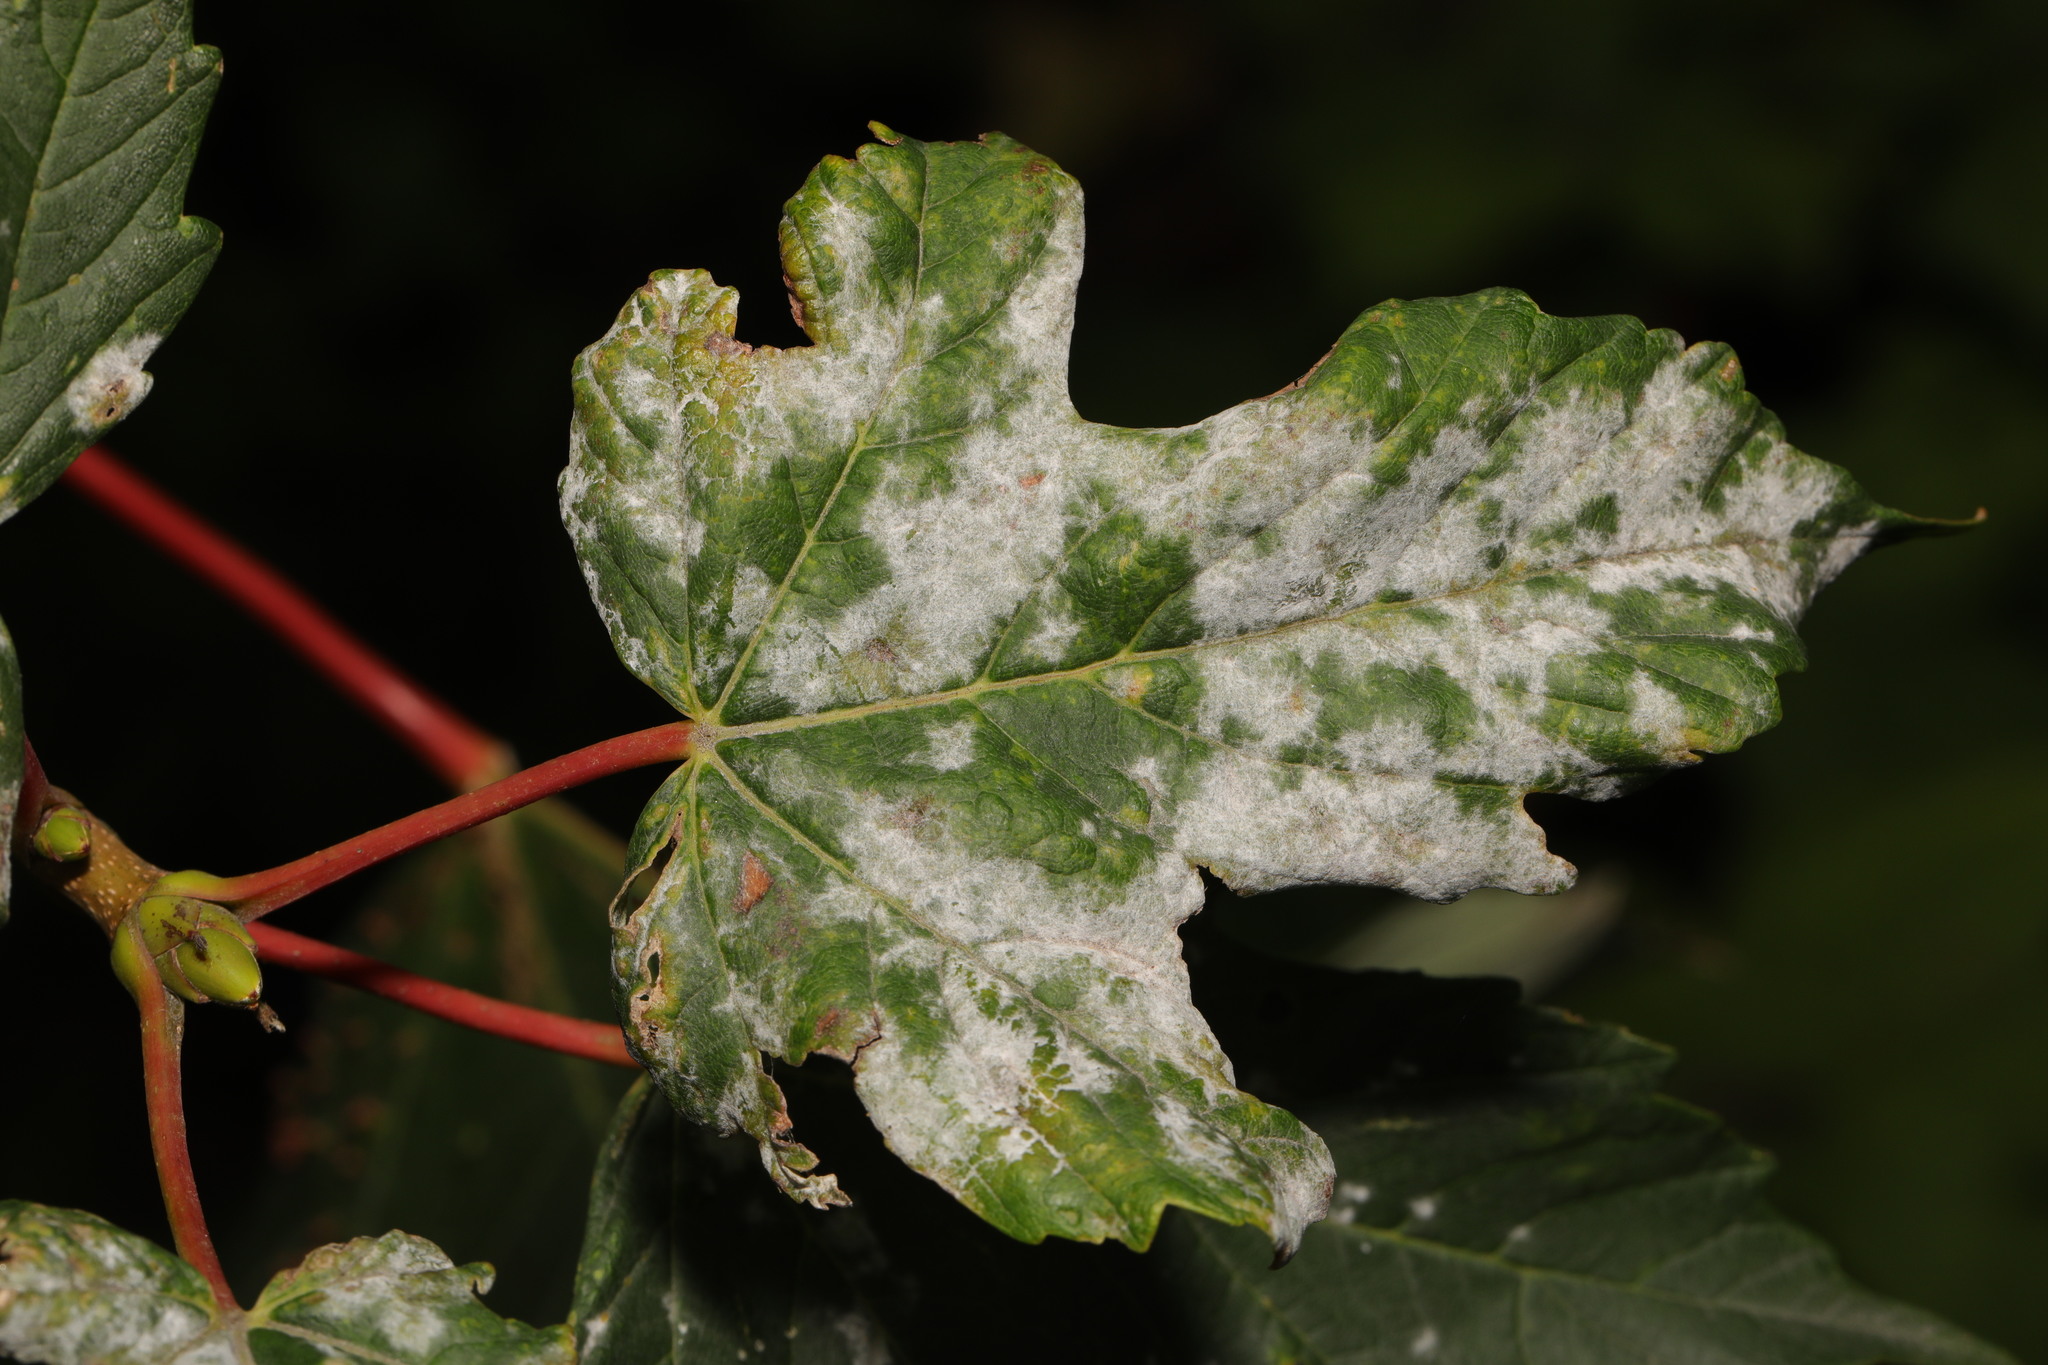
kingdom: Fungi
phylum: Ascomycota
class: Leotiomycetes
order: Helotiales
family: Erysiphaceae
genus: Sawadaea
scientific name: Sawadaea bicornis
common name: Maple mildew
